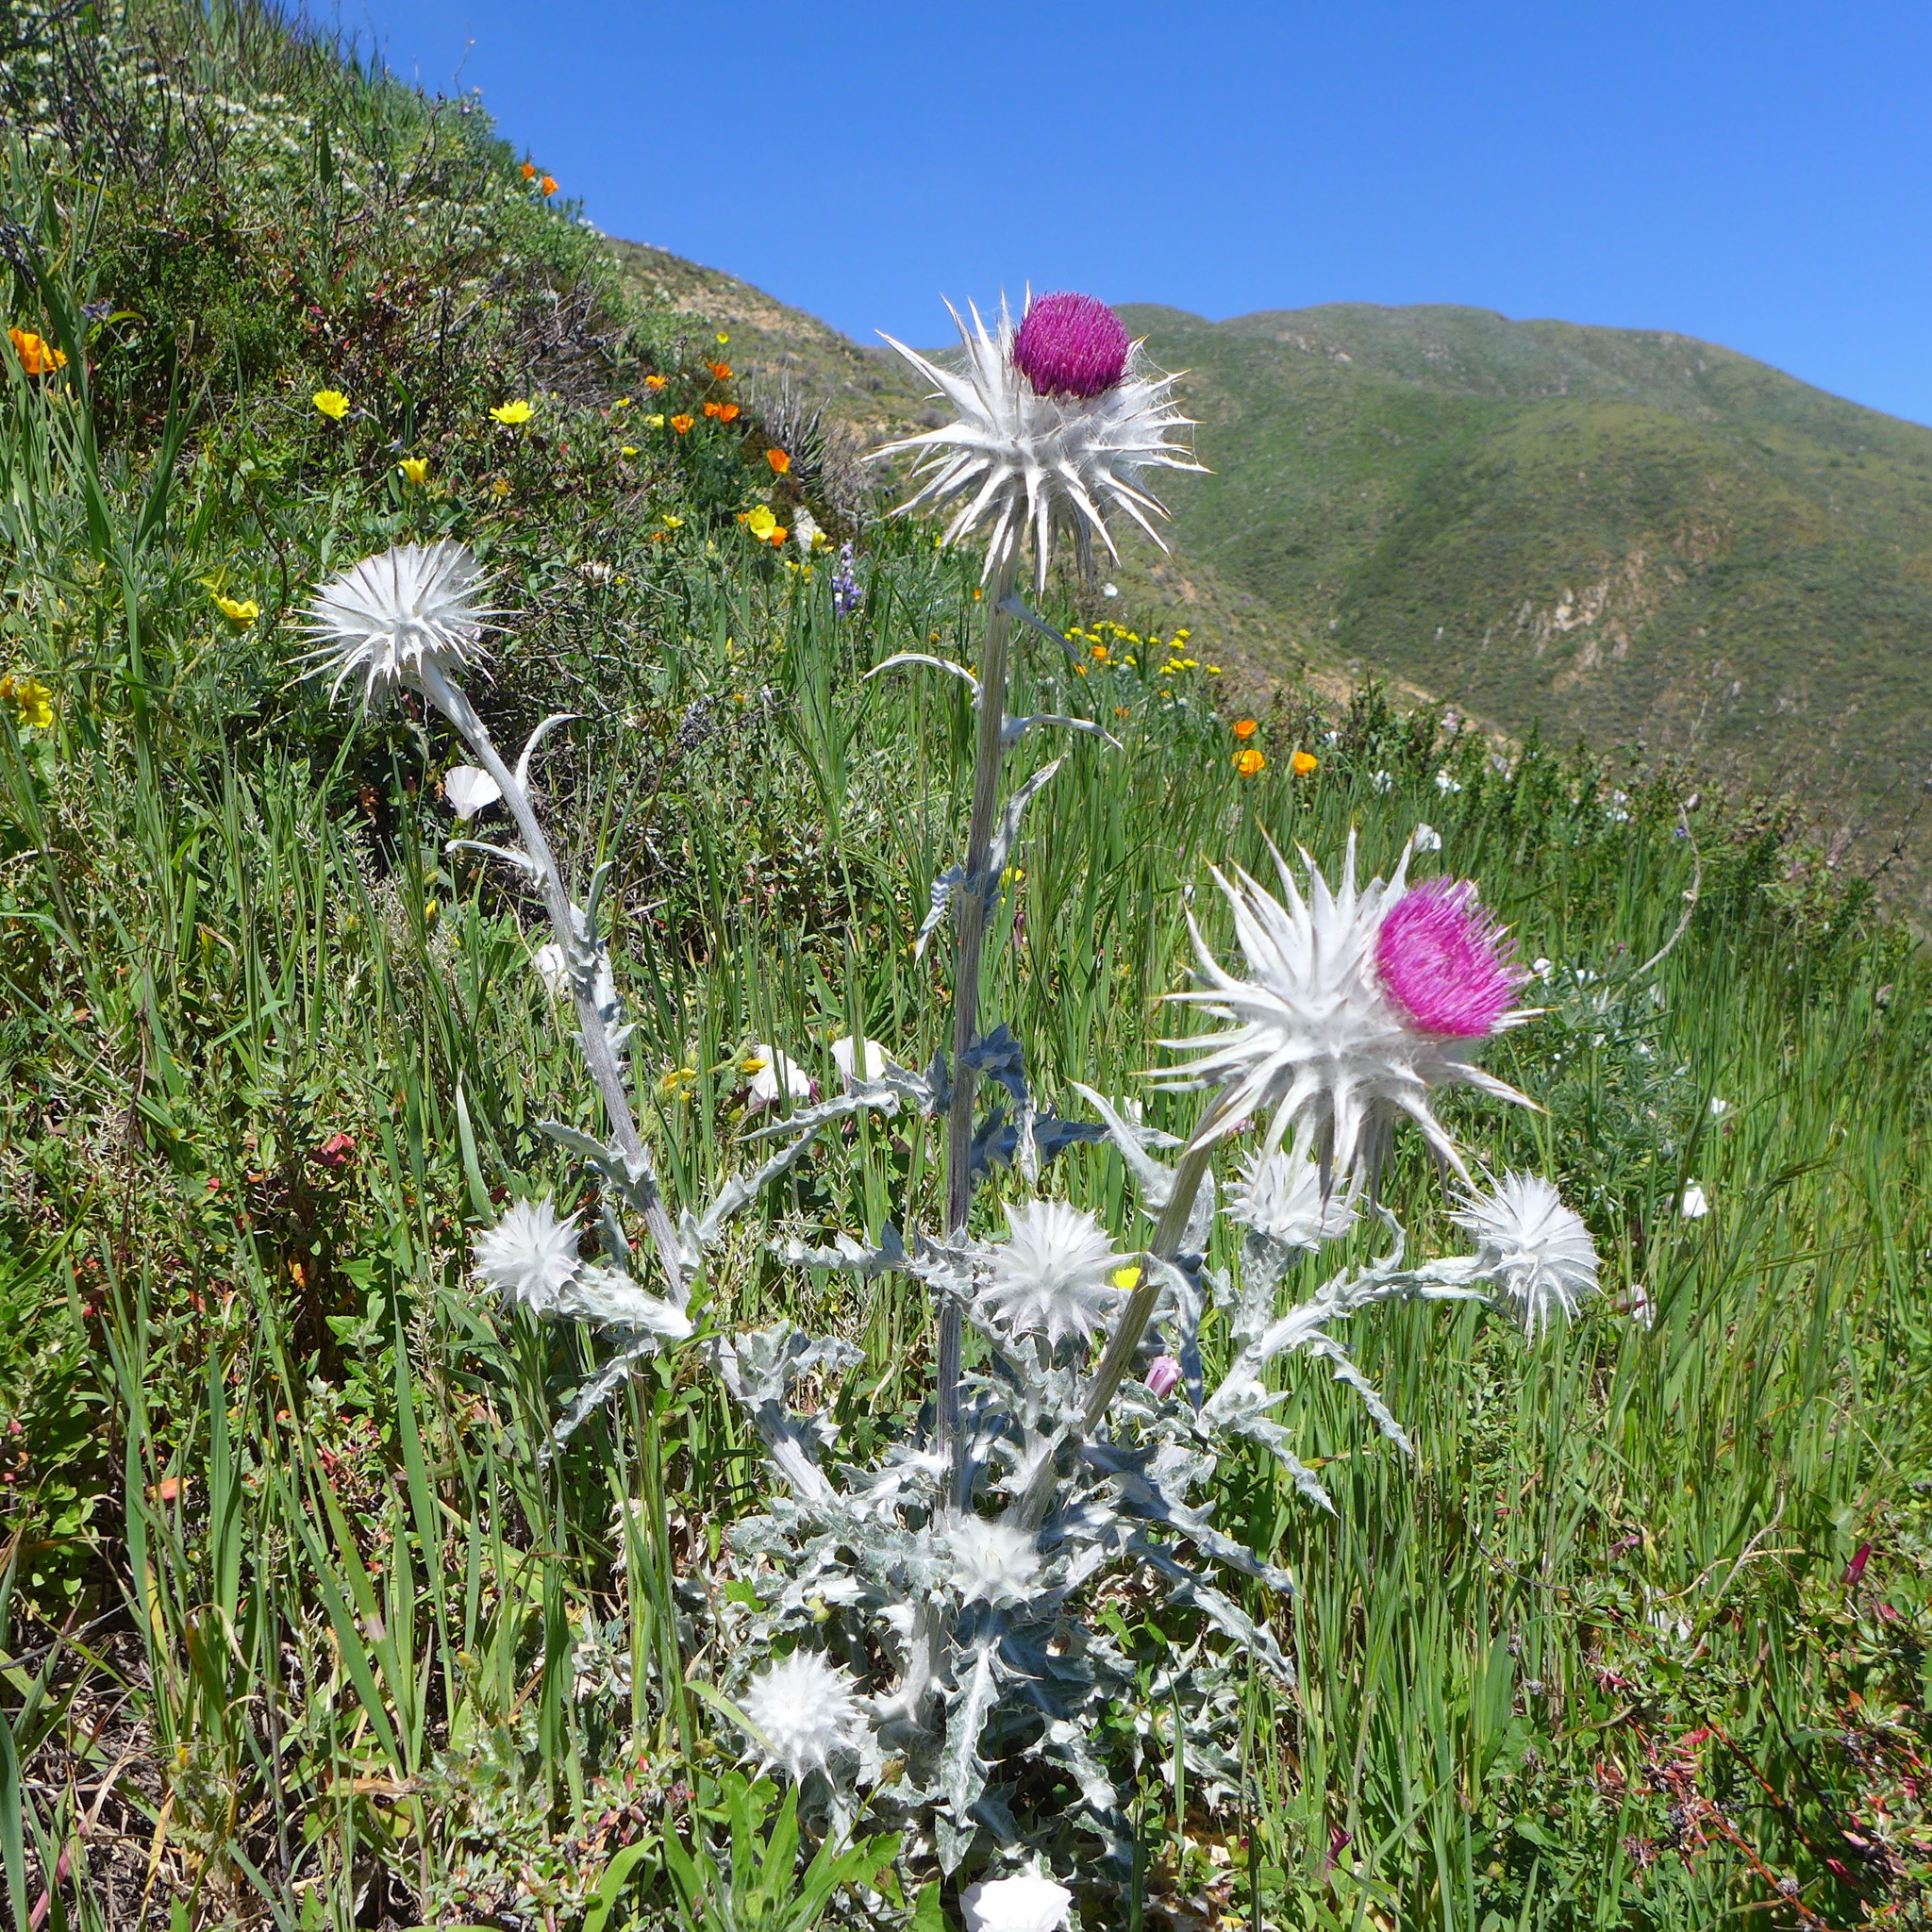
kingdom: Plantae
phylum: Tracheophyta
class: Magnoliopsida
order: Asterales
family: Asteraceae
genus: Cirsium
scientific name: Cirsium occidentale
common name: Western thistle
